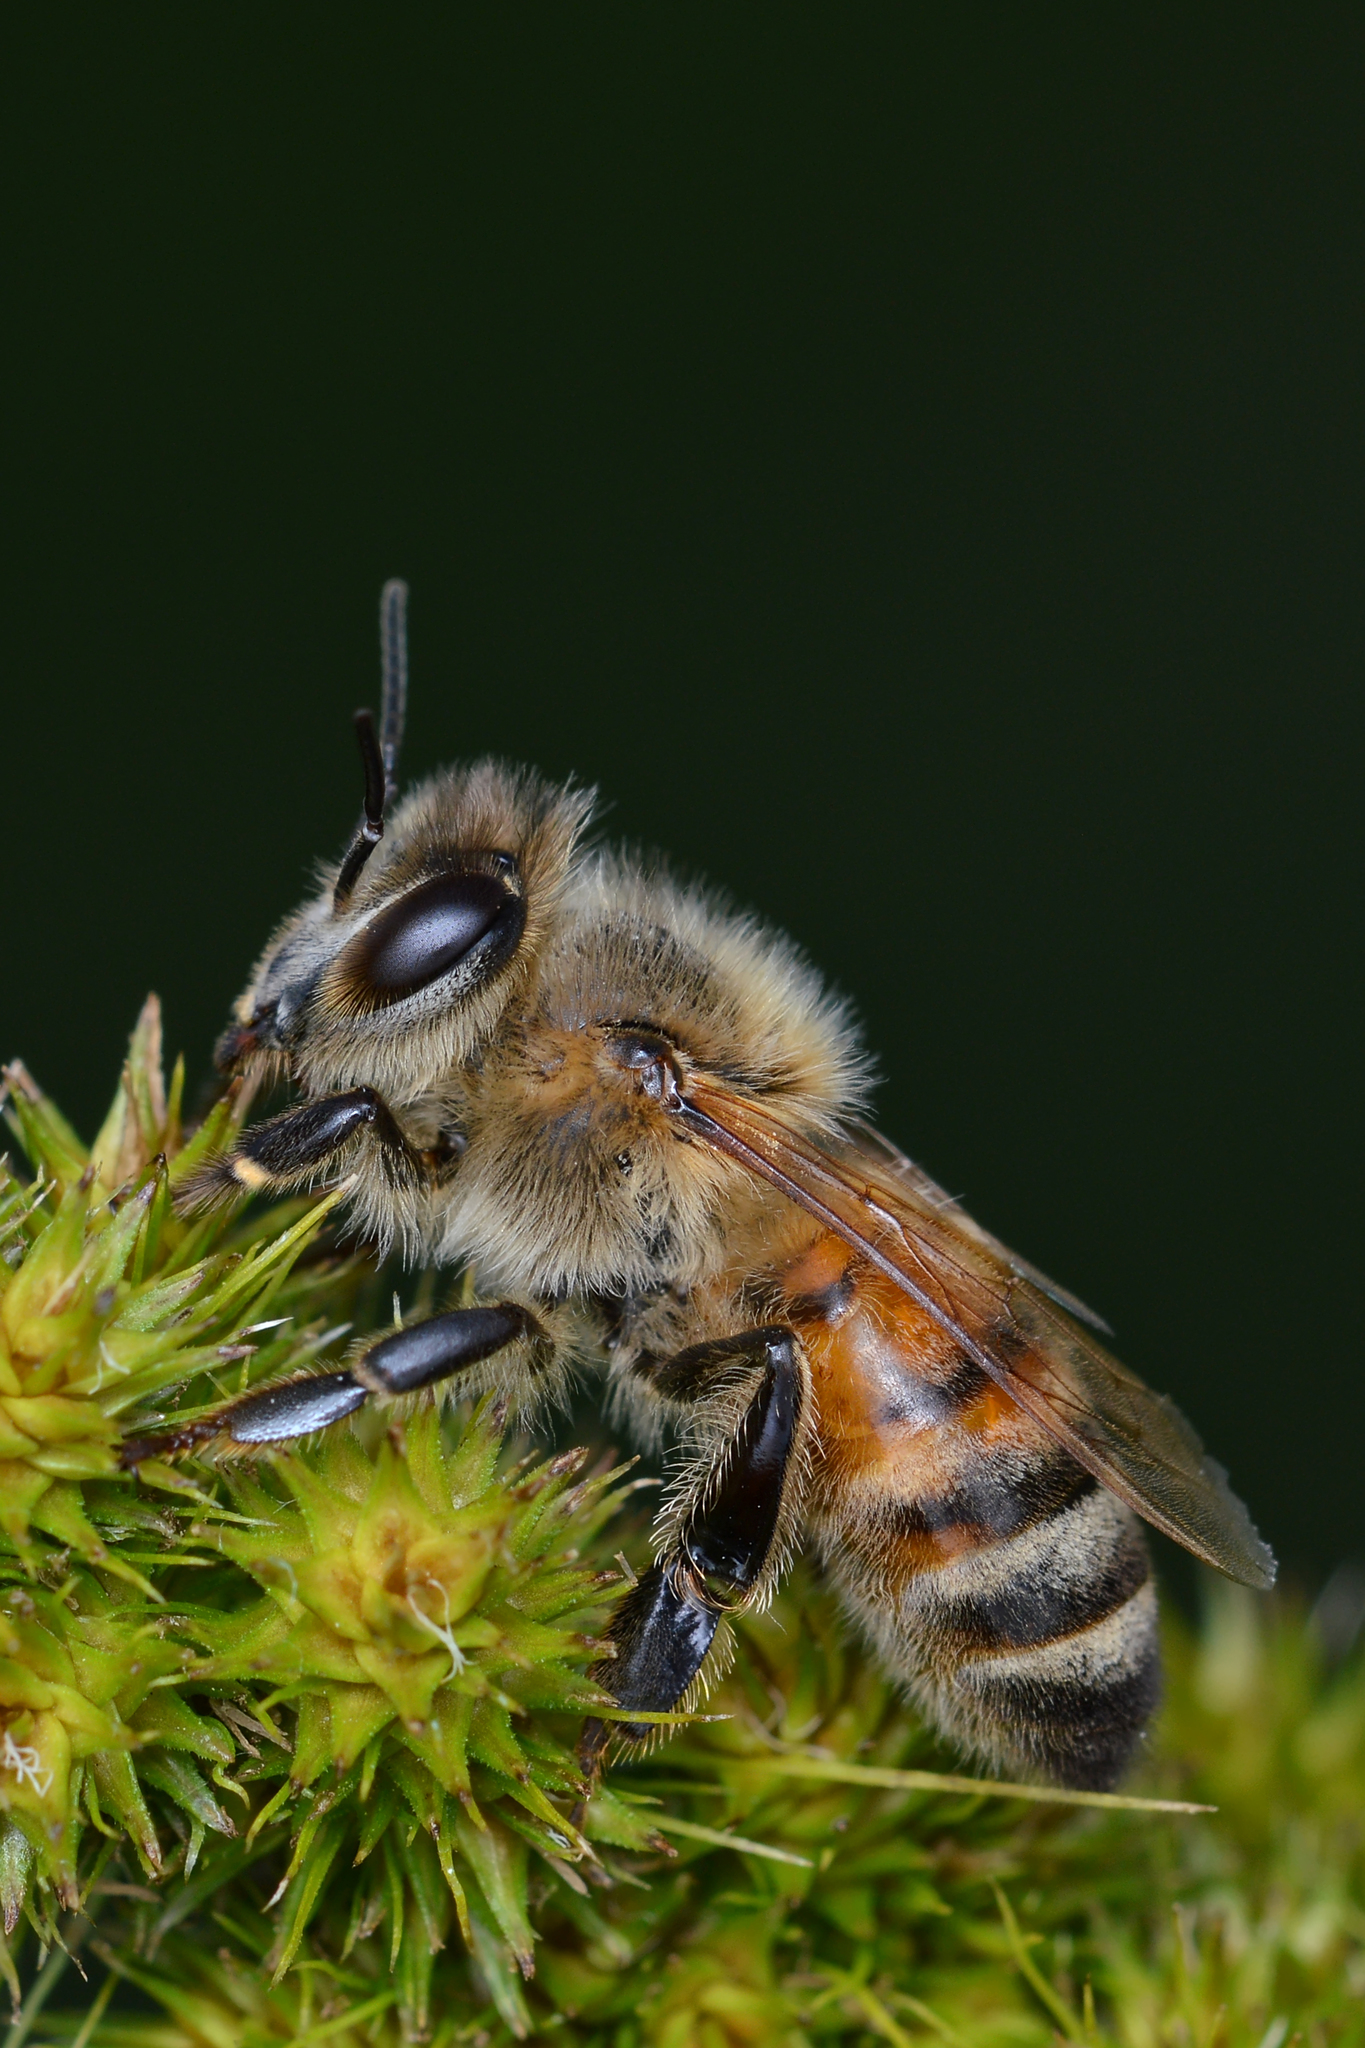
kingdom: Animalia
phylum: Arthropoda
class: Insecta
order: Hymenoptera
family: Apidae
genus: Apis
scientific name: Apis mellifera
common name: Honey bee
